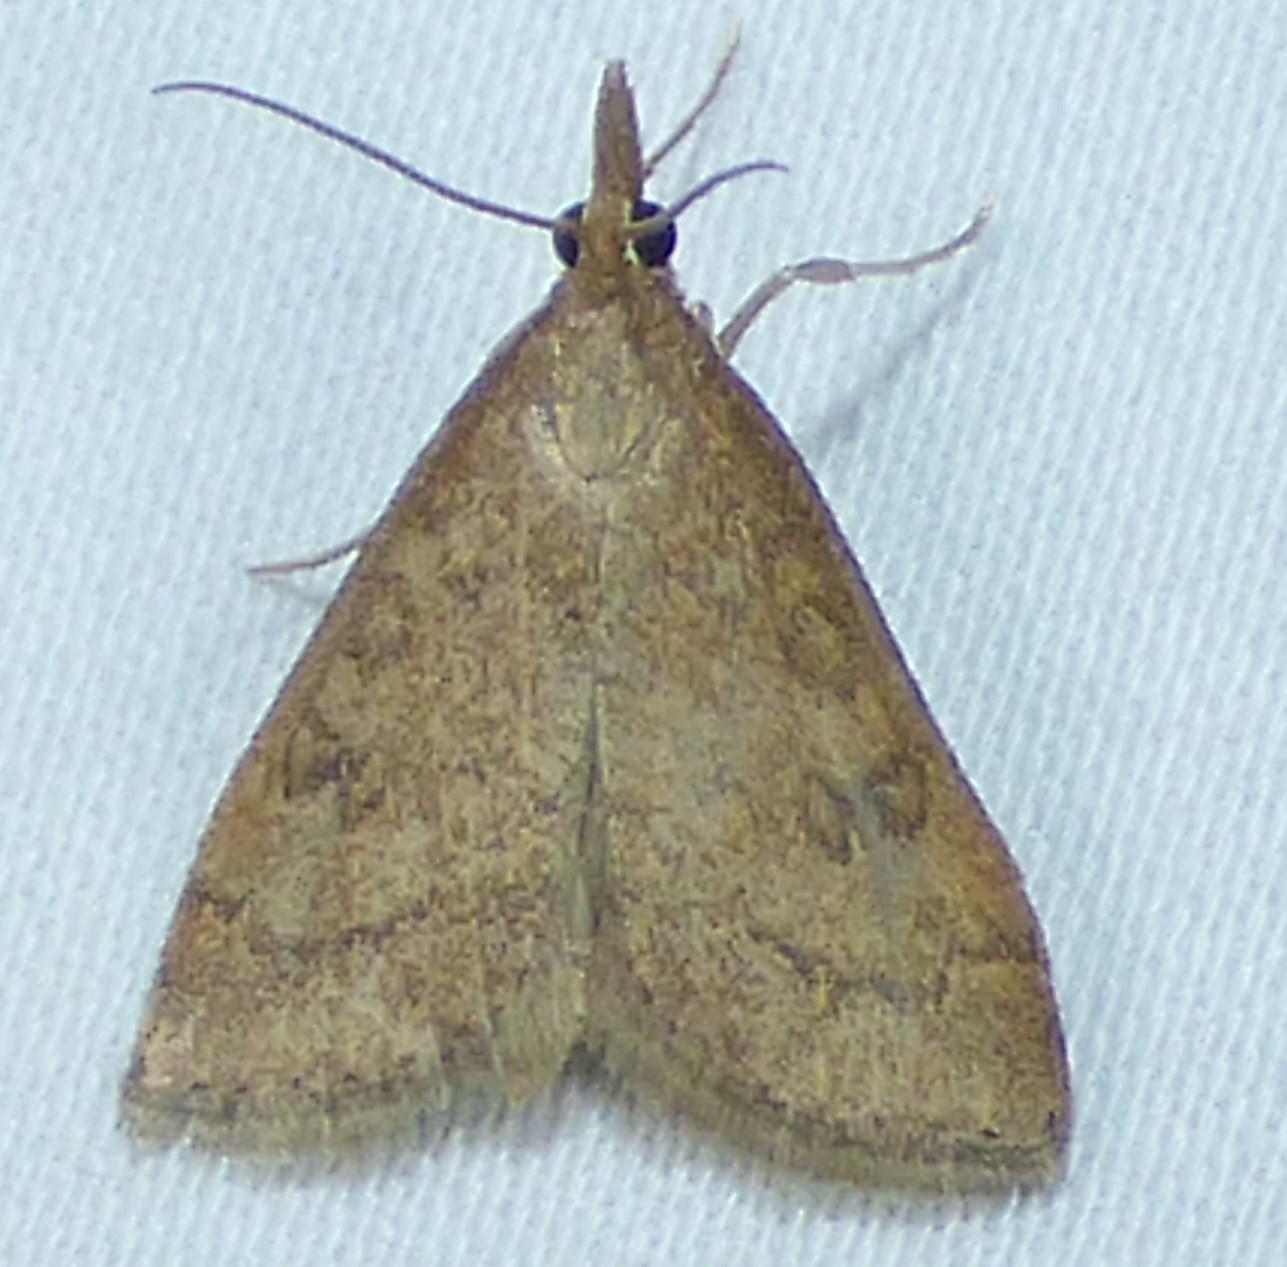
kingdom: Animalia
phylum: Arthropoda
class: Insecta
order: Lepidoptera
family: Crambidae
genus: Udea
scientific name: Udea rubigalis
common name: Celery leaftier moth
